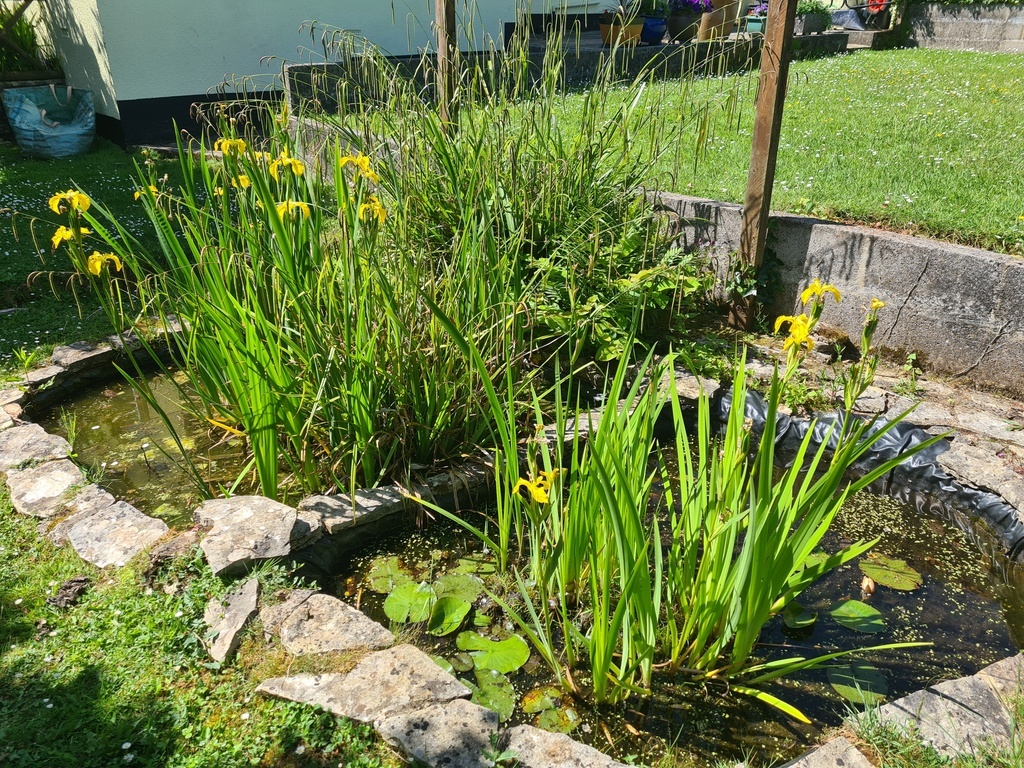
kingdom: Plantae
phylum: Tracheophyta
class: Liliopsida
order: Asparagales
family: Iridaceae
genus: Iris
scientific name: Iris pseudacorus
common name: Yellow flag
